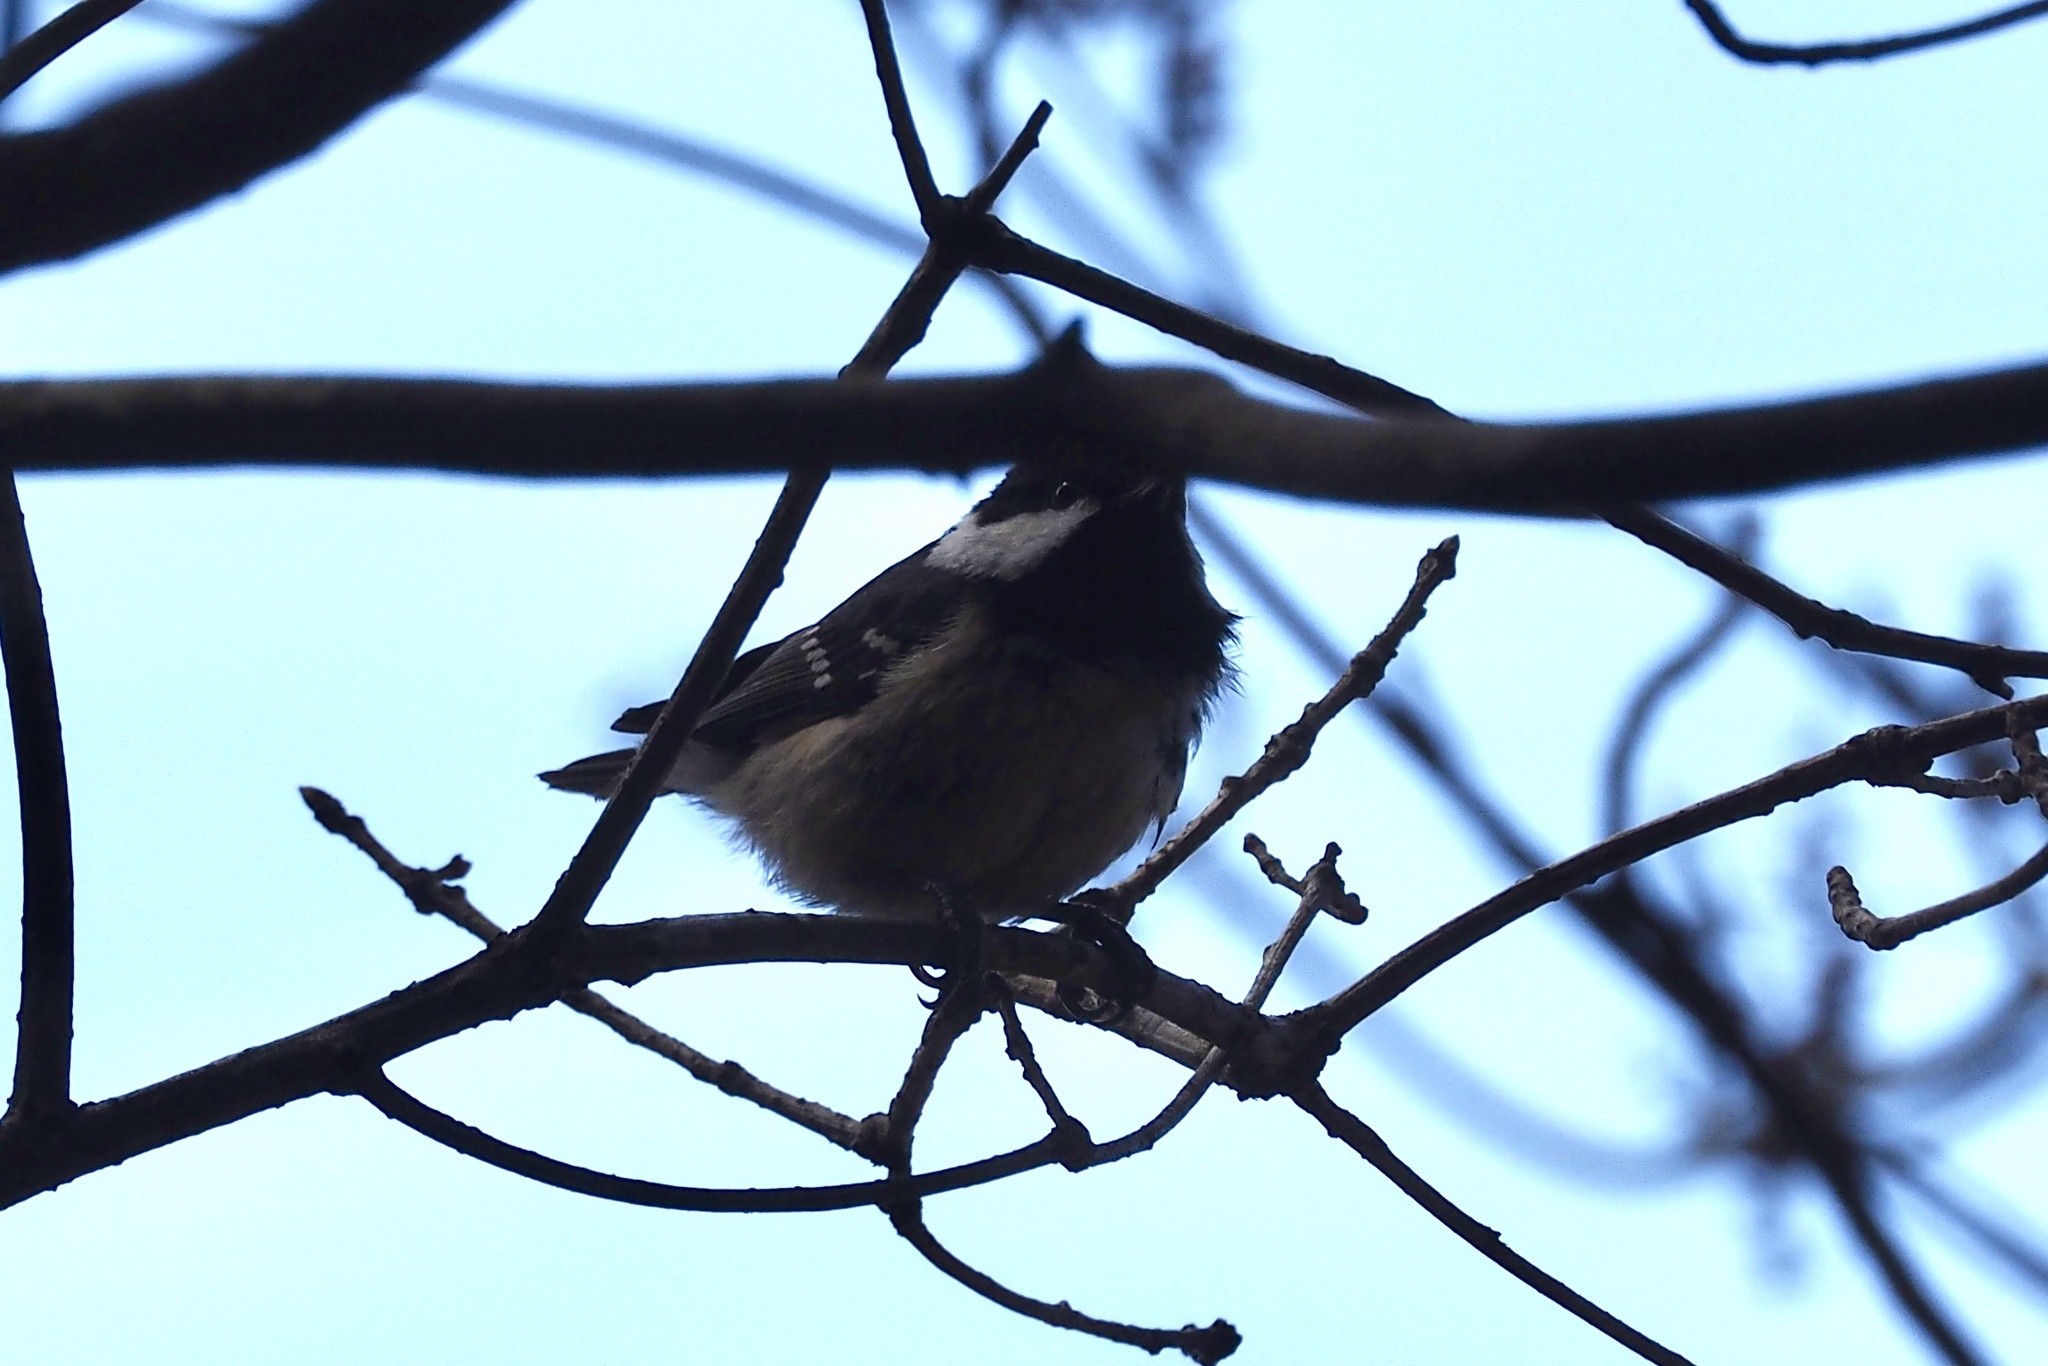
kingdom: Animalia
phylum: Chordata
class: Aves
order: Passeriformes
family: Paridae
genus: Periparus
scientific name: Periparus ater
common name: Coal tit
